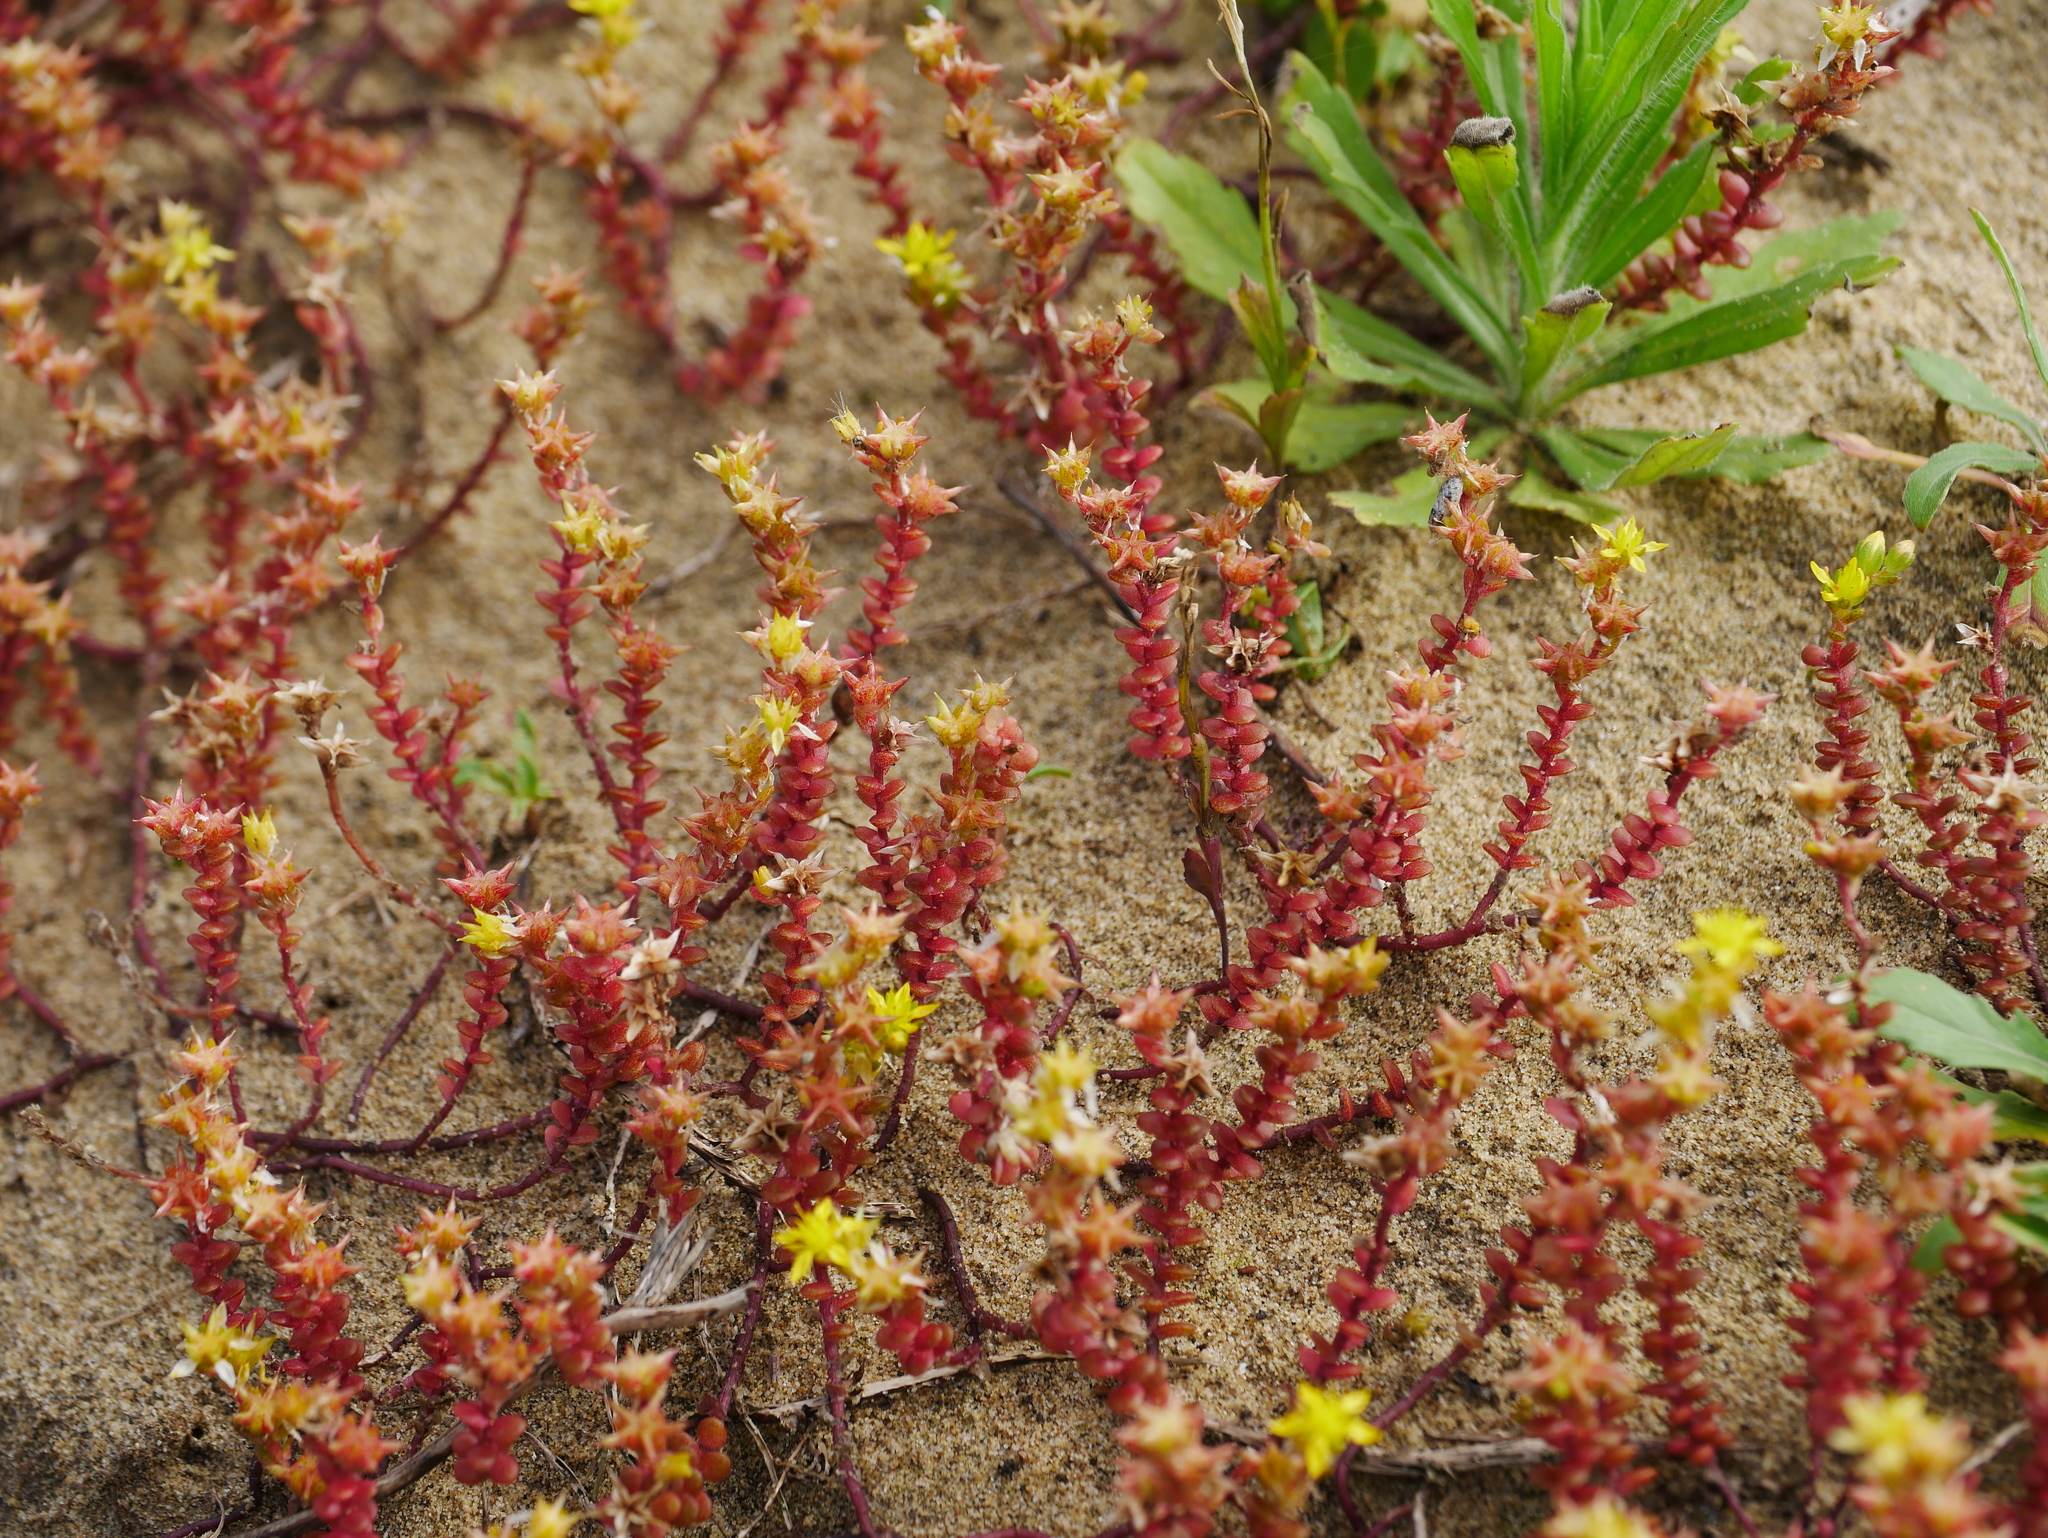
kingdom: Plantae
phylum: Tracheophyta
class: Magnoliopsida
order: Saxifragales
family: Crassulaceae
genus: Sedum
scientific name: Sedum japonicum
